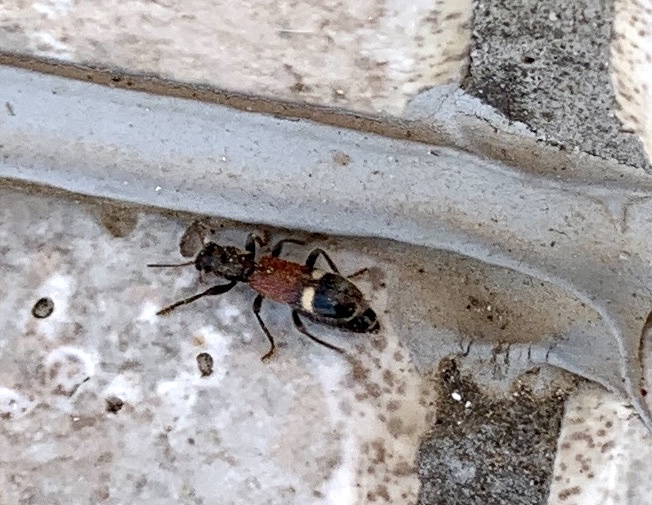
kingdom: Animalia
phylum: Arthropoda
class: Insecta
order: Coleoptera
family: Cleridae
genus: Opilo
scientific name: Opilo taeniatus
